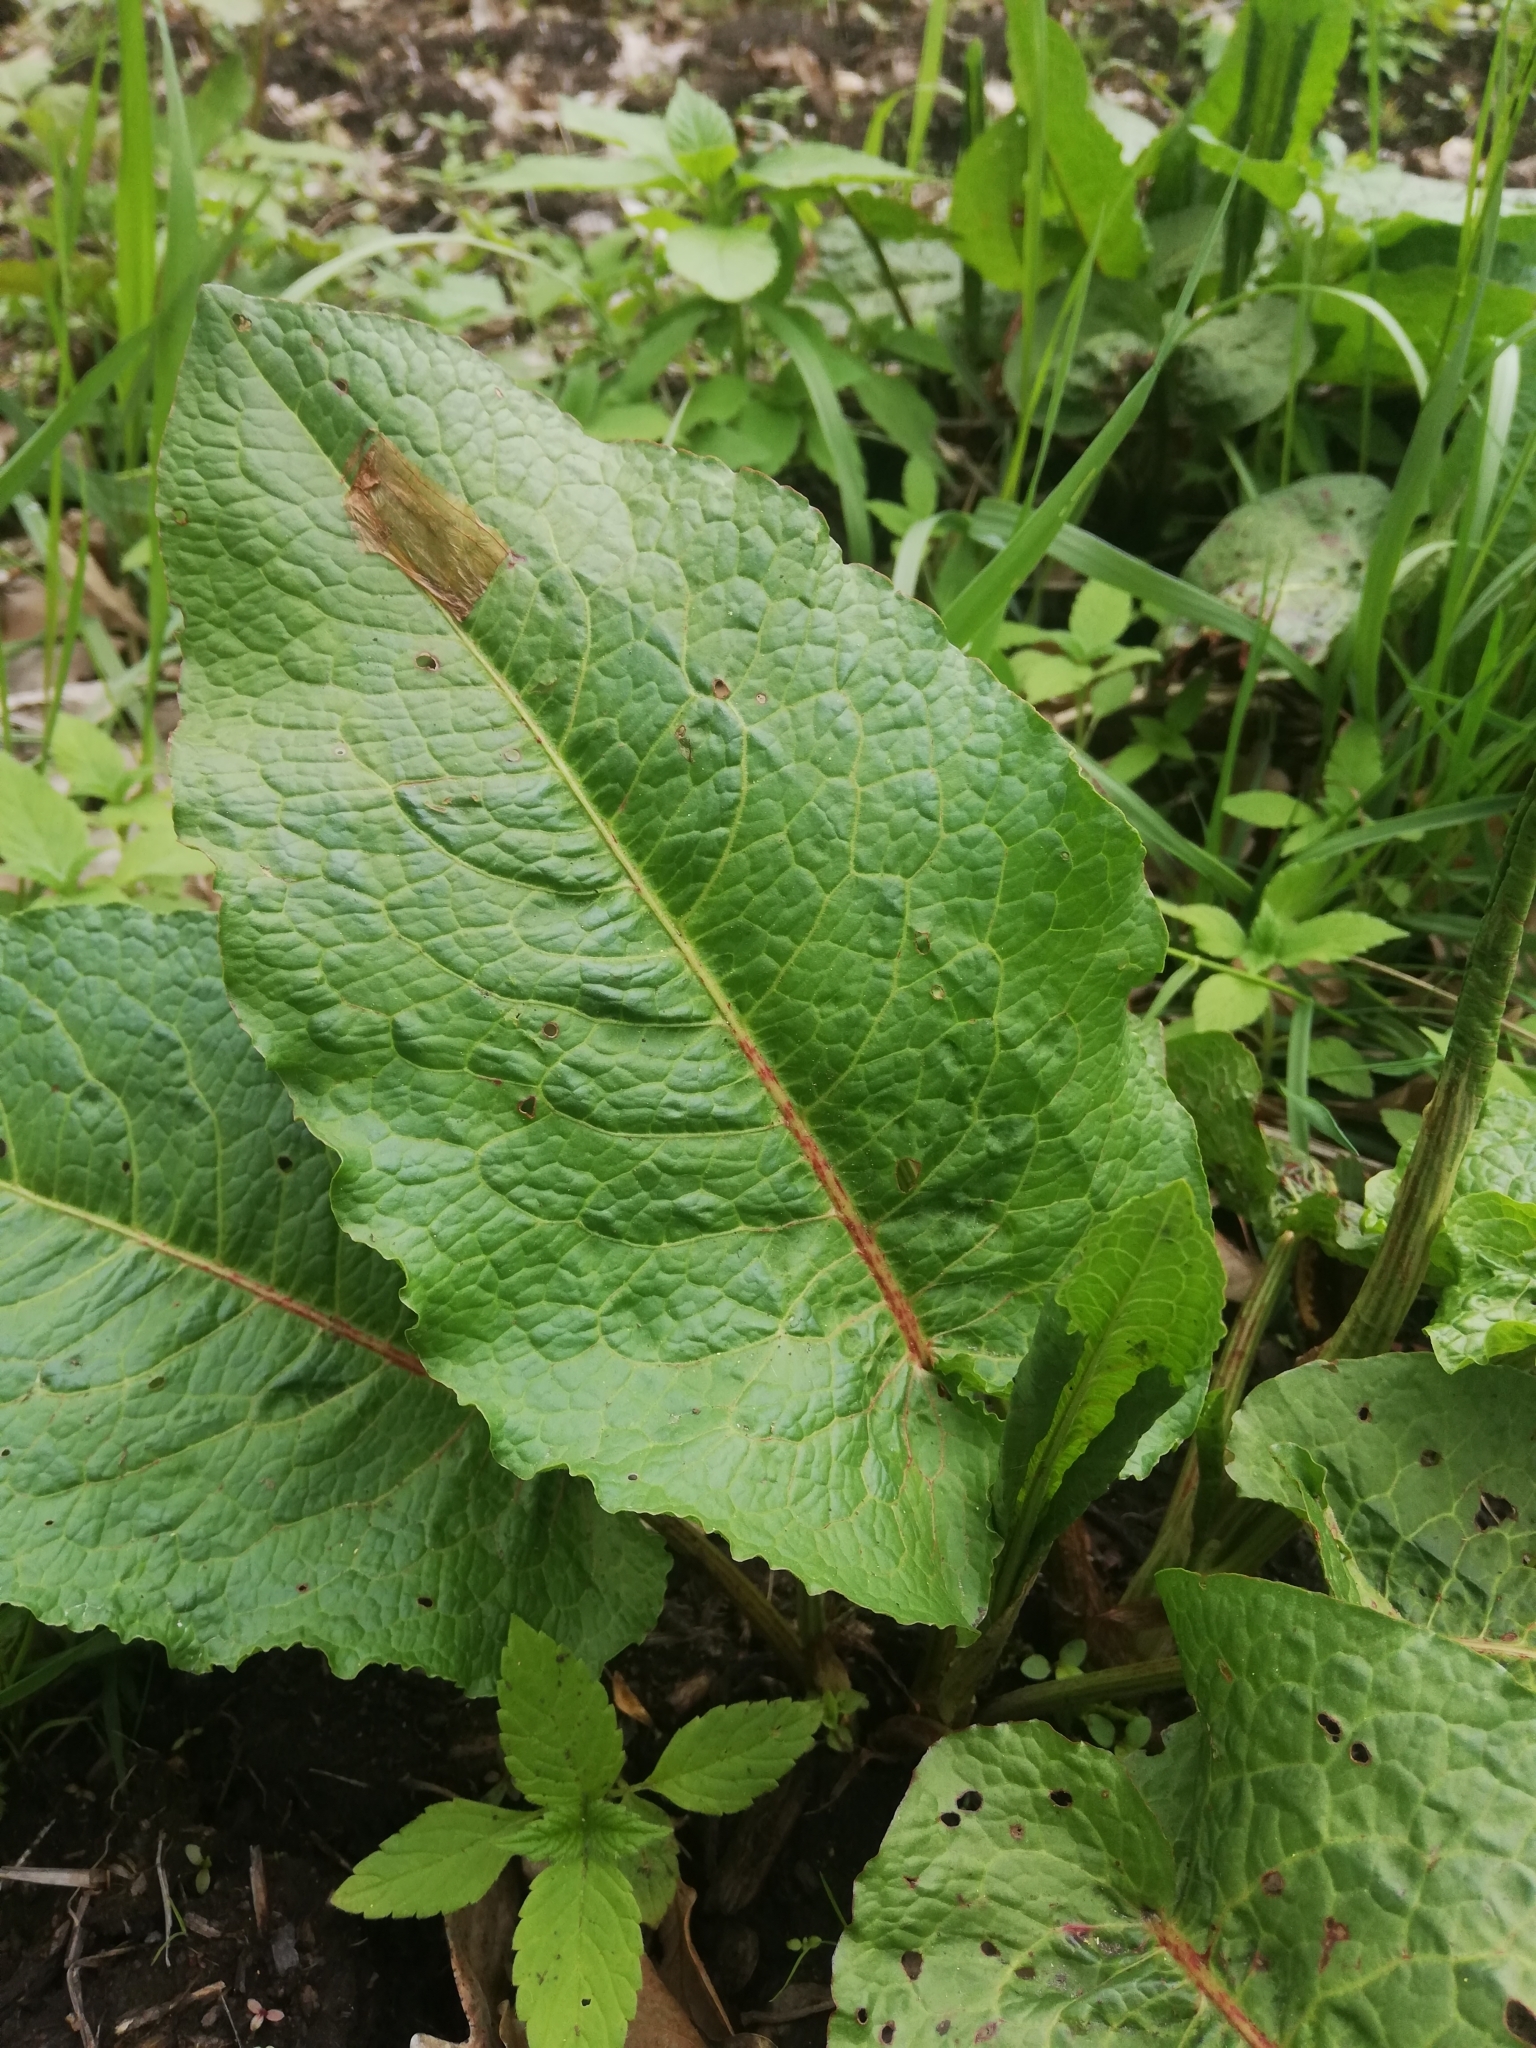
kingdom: Plantae
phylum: Tracheophyta
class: Magnoliopsida
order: Caryophyllales
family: Polygonaceae
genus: Rumex
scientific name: Rumex obtusifolius
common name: Bitter dock
